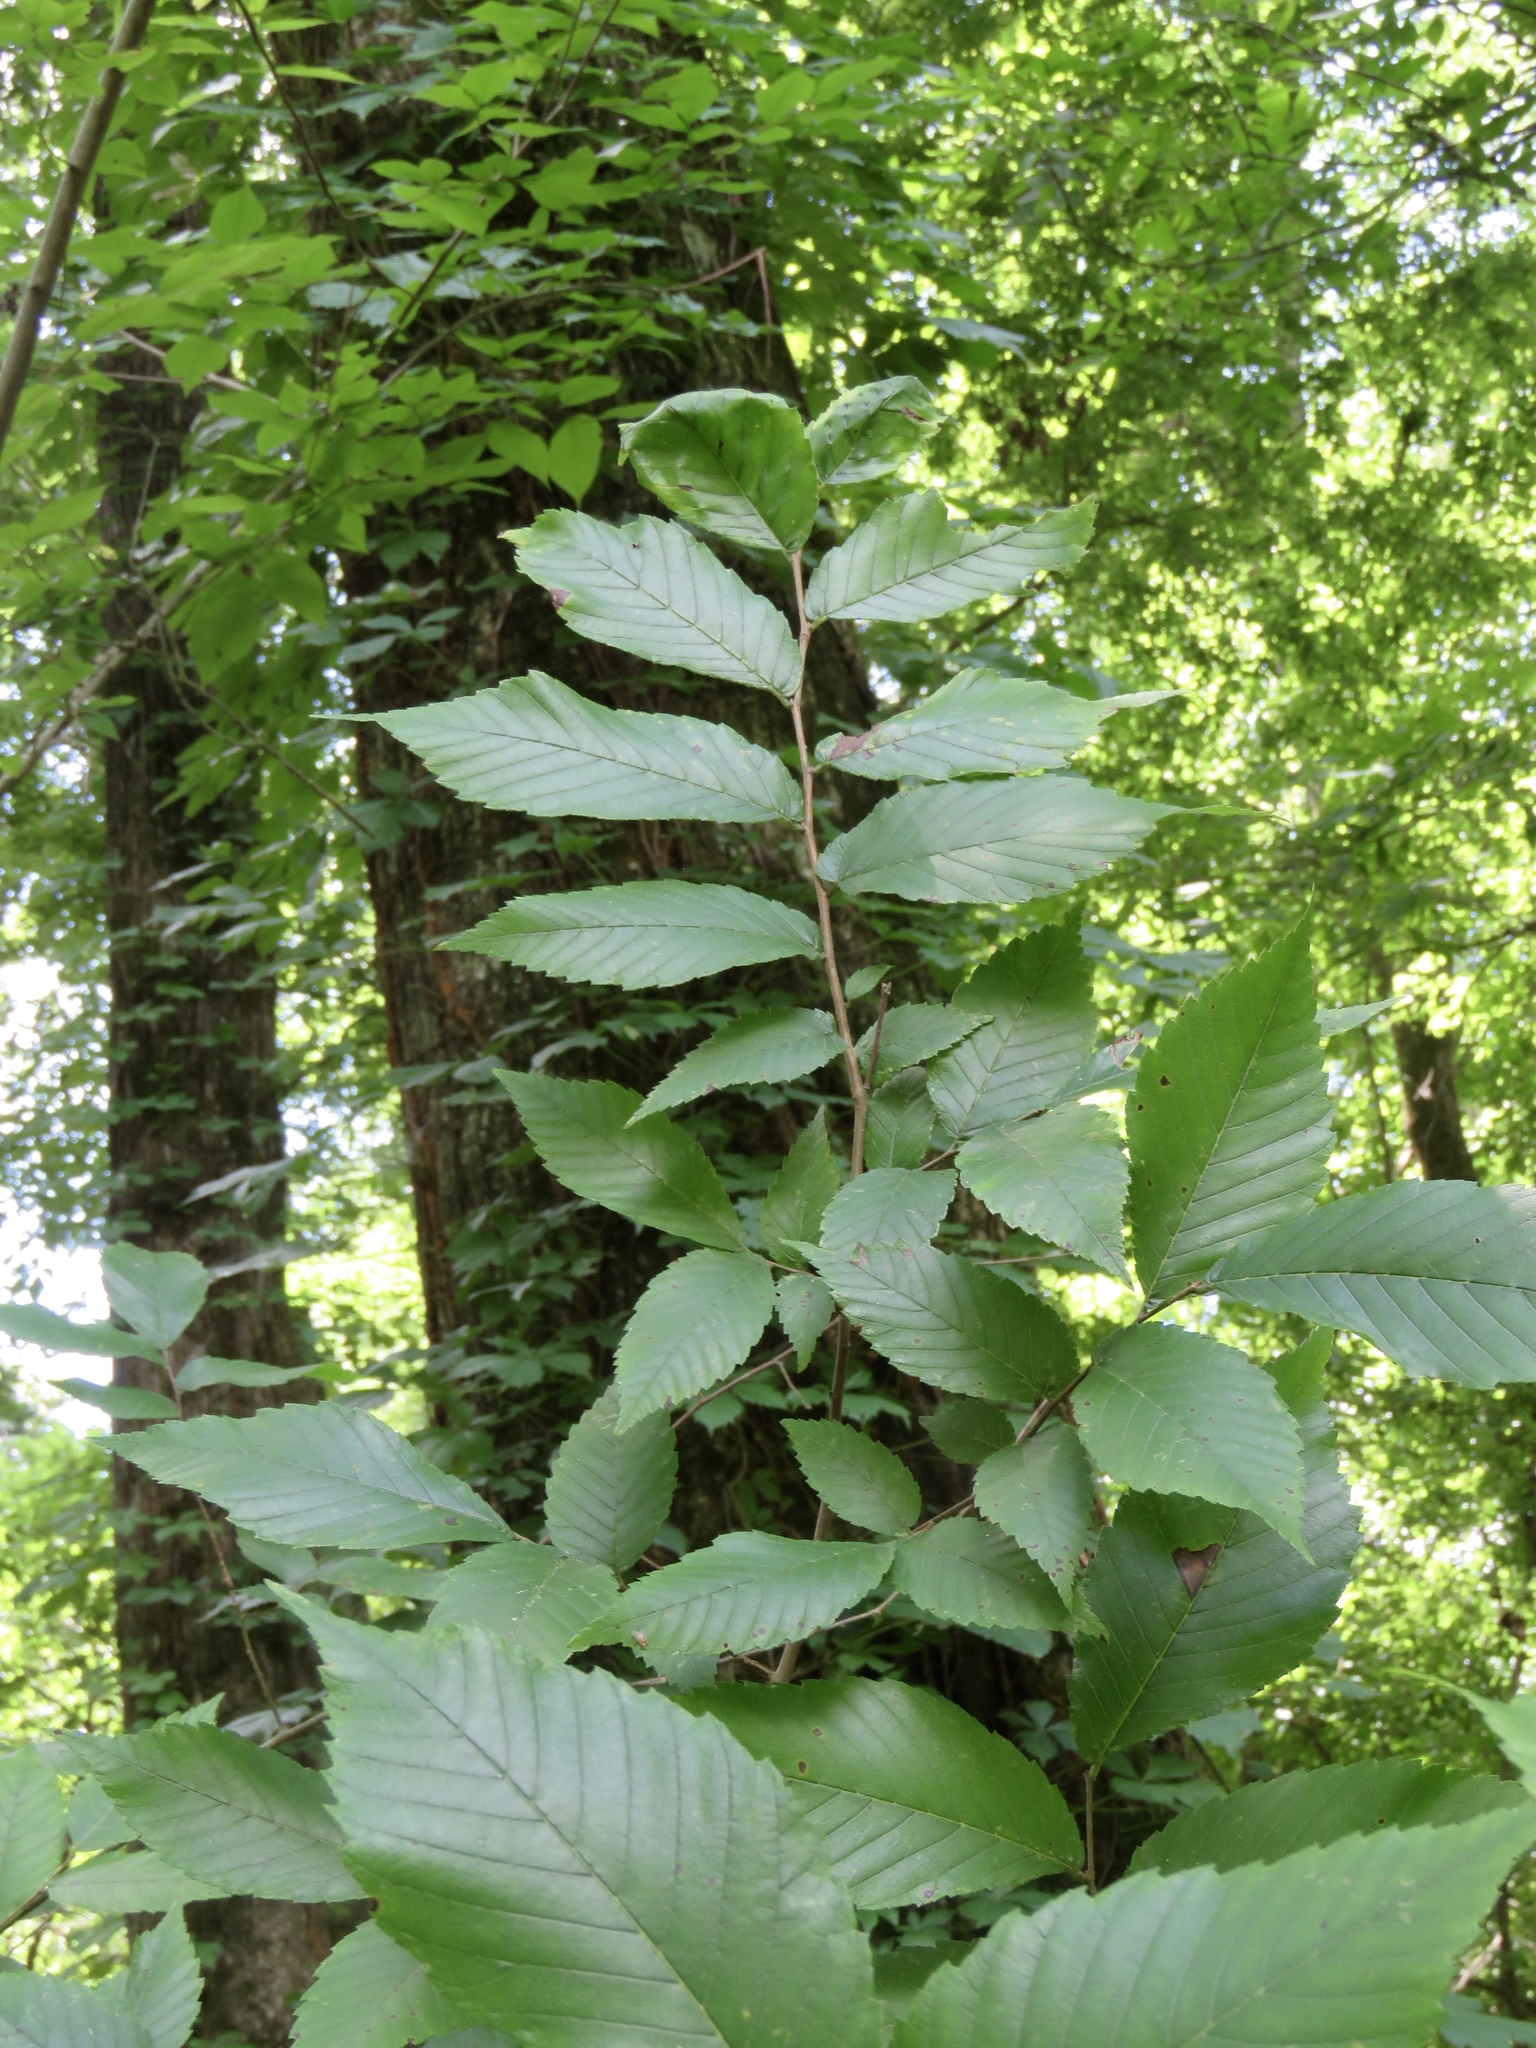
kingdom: Plantae
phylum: Tracheophyta
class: Magnoliopsida
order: Rosales
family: Ulmaceae
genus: Ulmus
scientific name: Ulmus rubra
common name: Slippery elm
